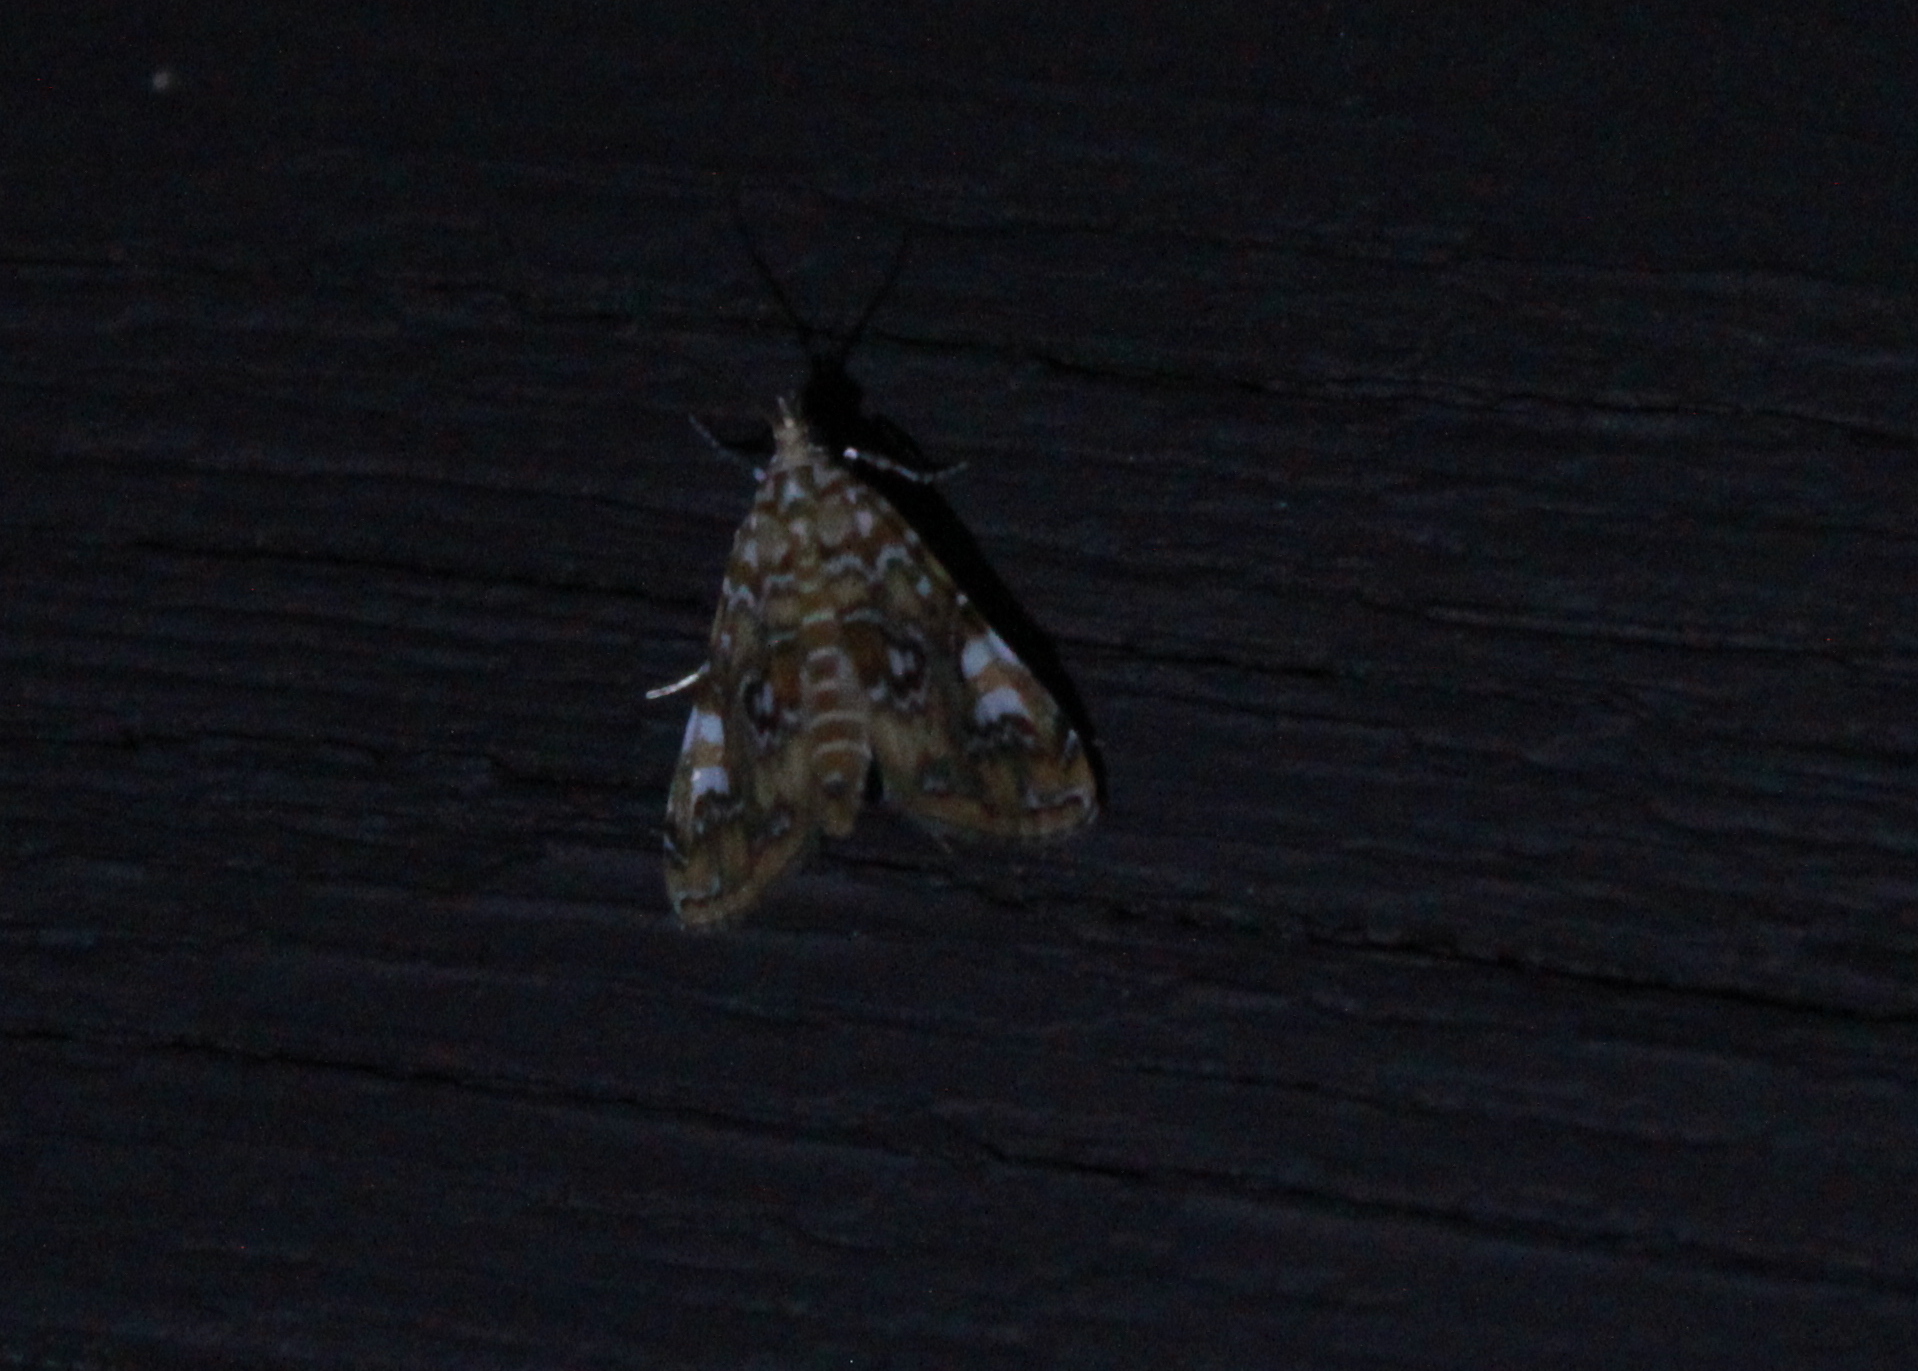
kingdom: Animalia
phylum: Arthropoda
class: Insecta
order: Lepidoptera
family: Crambidae
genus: Elophila
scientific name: Elophila gyralis
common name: Waterlily borer moth
